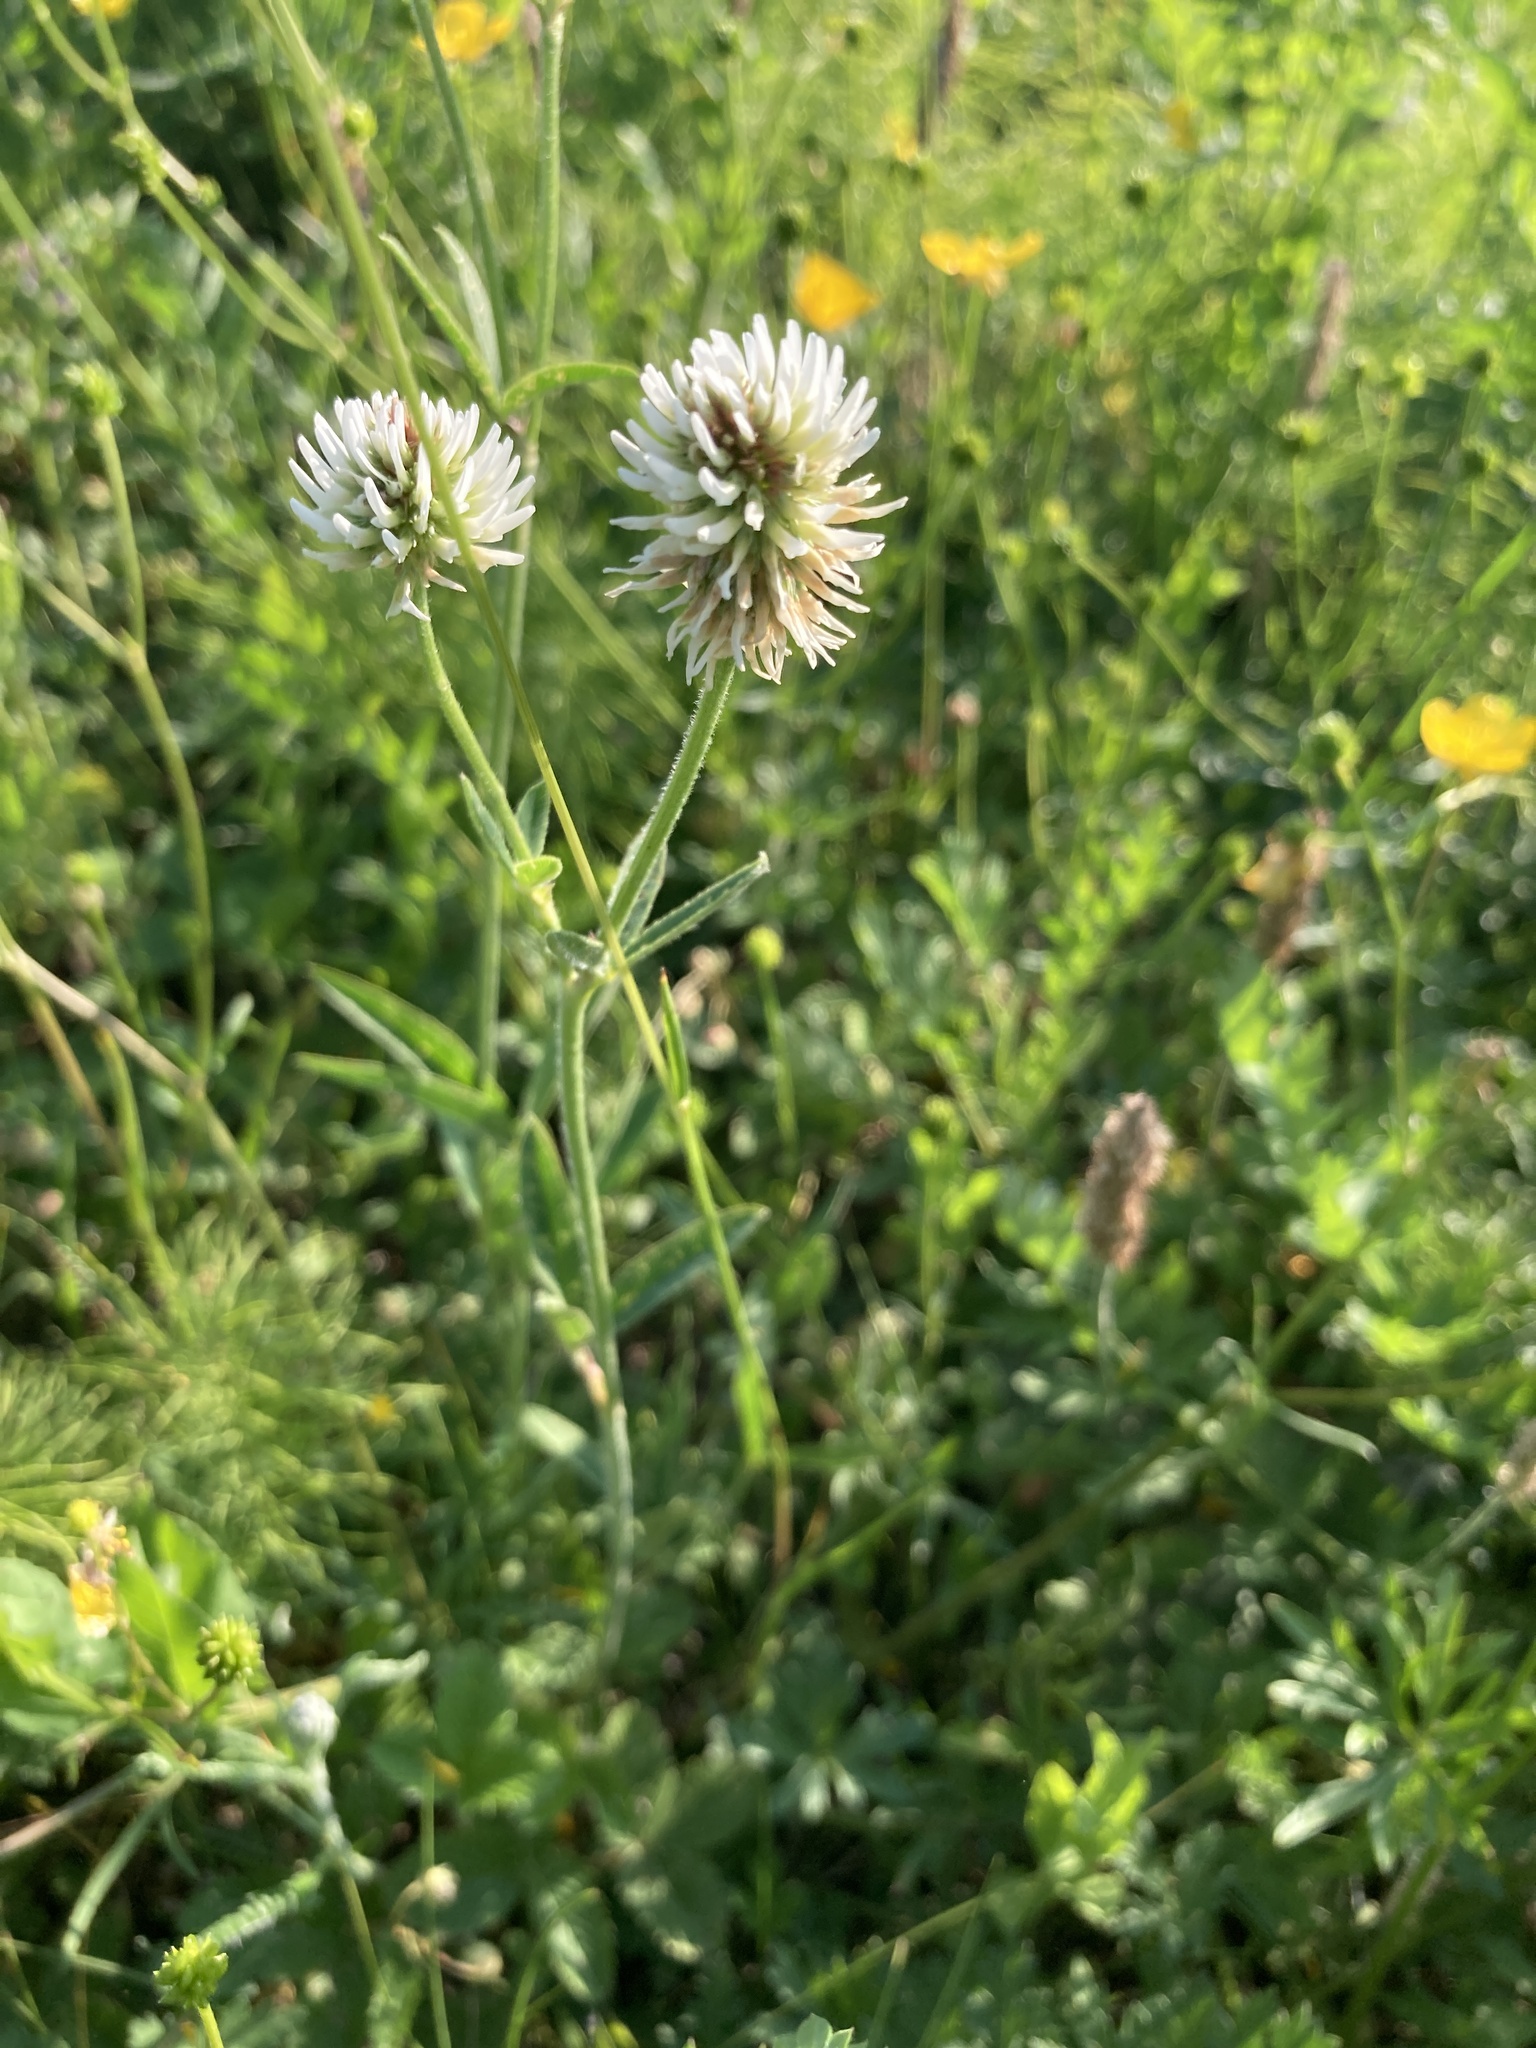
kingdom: Plantae
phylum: Tracheophyta
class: Magnoliopsida
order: Fabales
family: Fabaceae
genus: Trifolium
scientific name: Trifolium montanum
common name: Mountain clover
